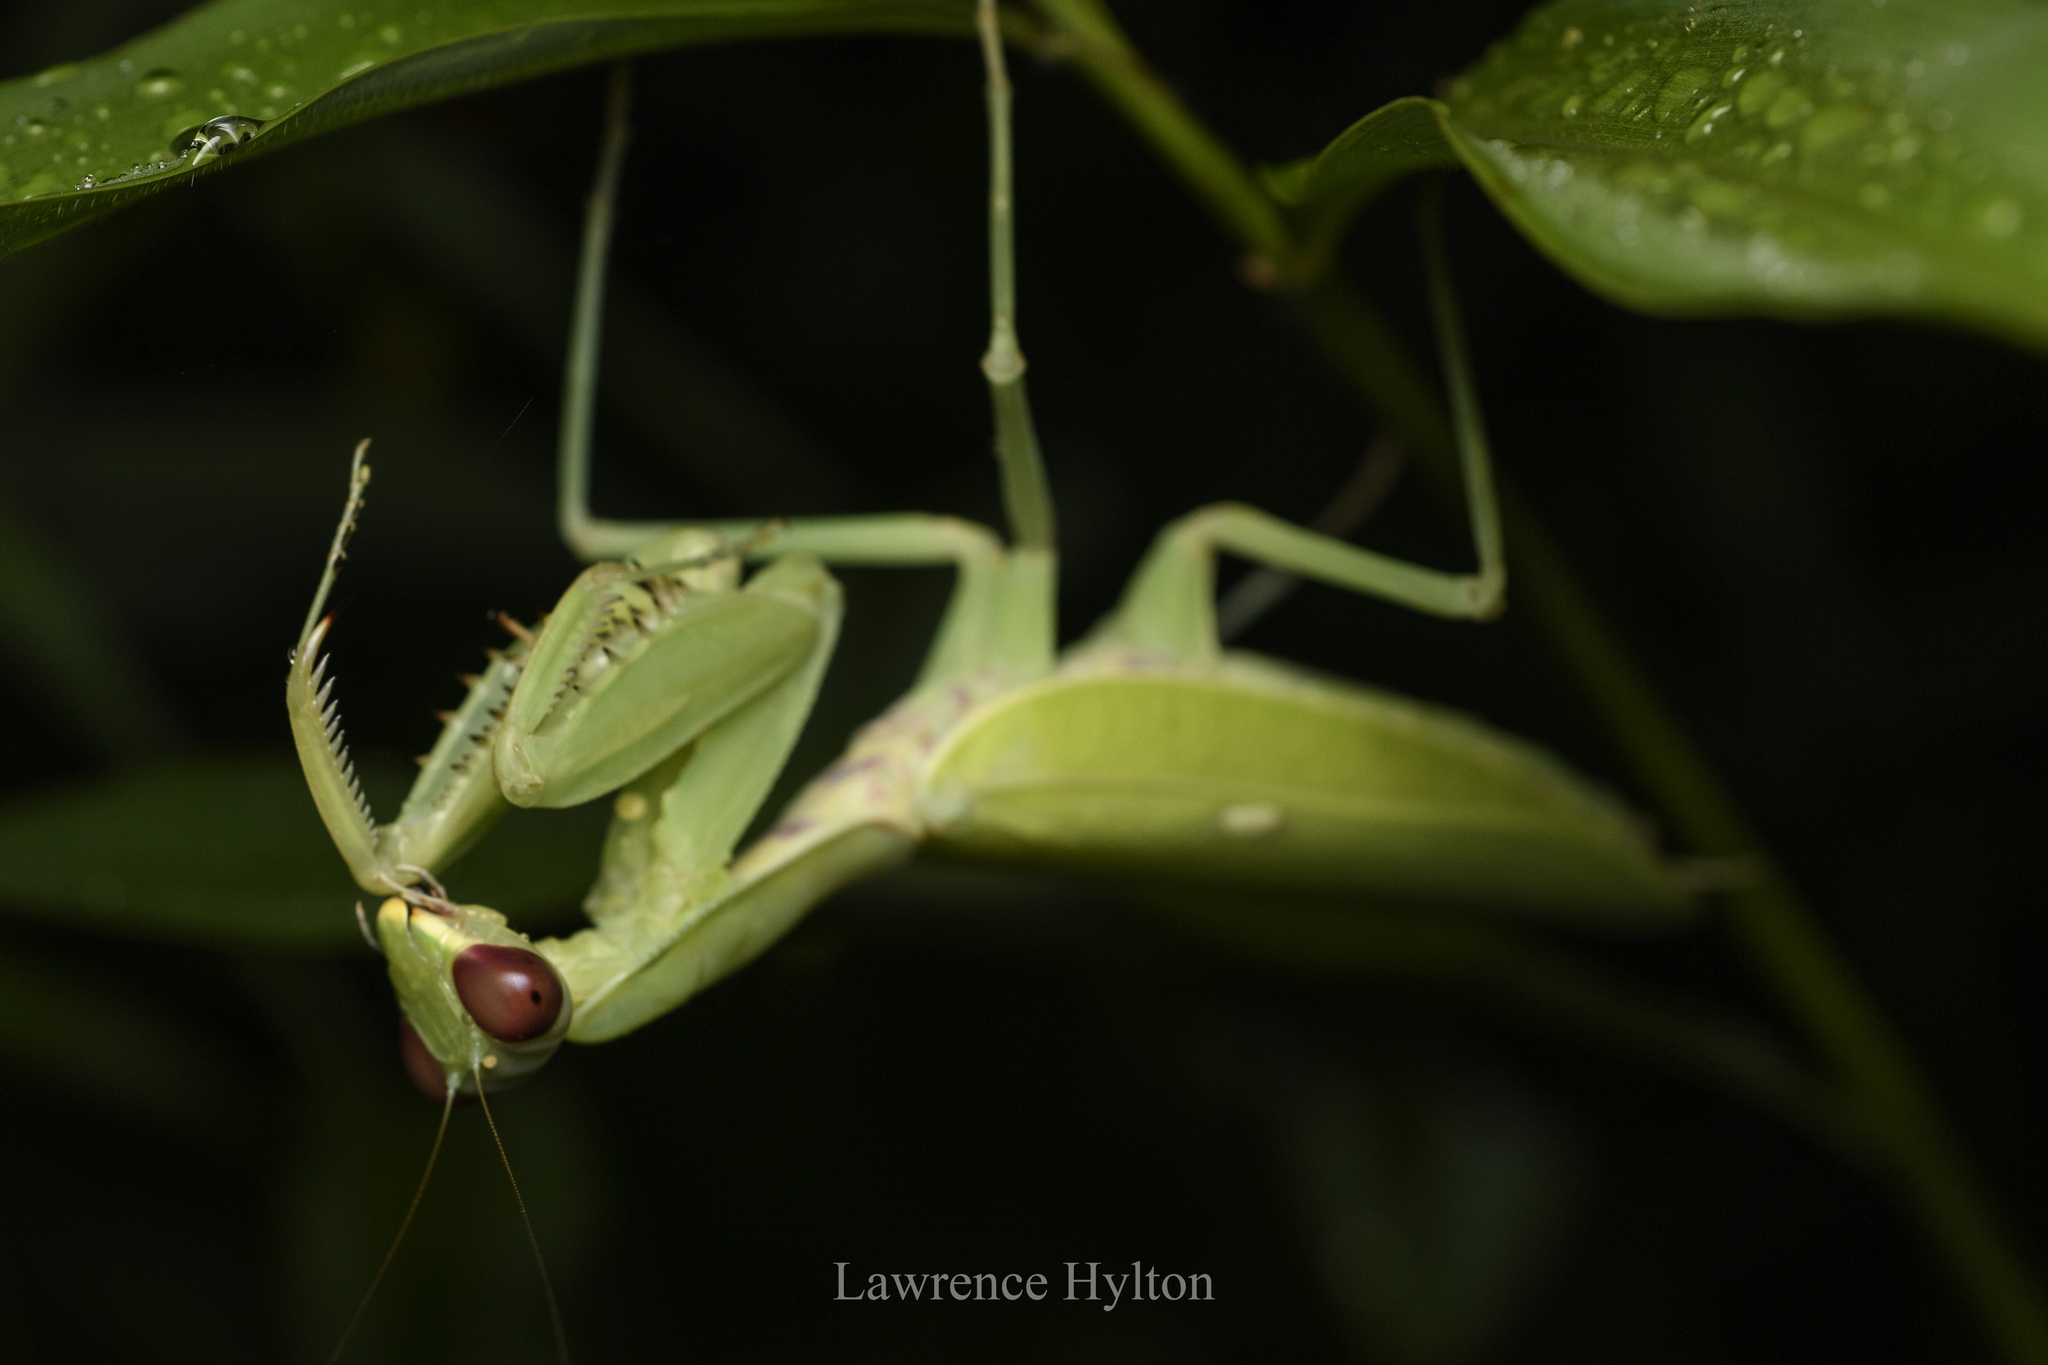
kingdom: Animalia
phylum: Arthropoda
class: Insecta
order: Mantodea
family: Mantidae
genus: Hierodula
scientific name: Hierodula patellifera
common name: Asian mantis
